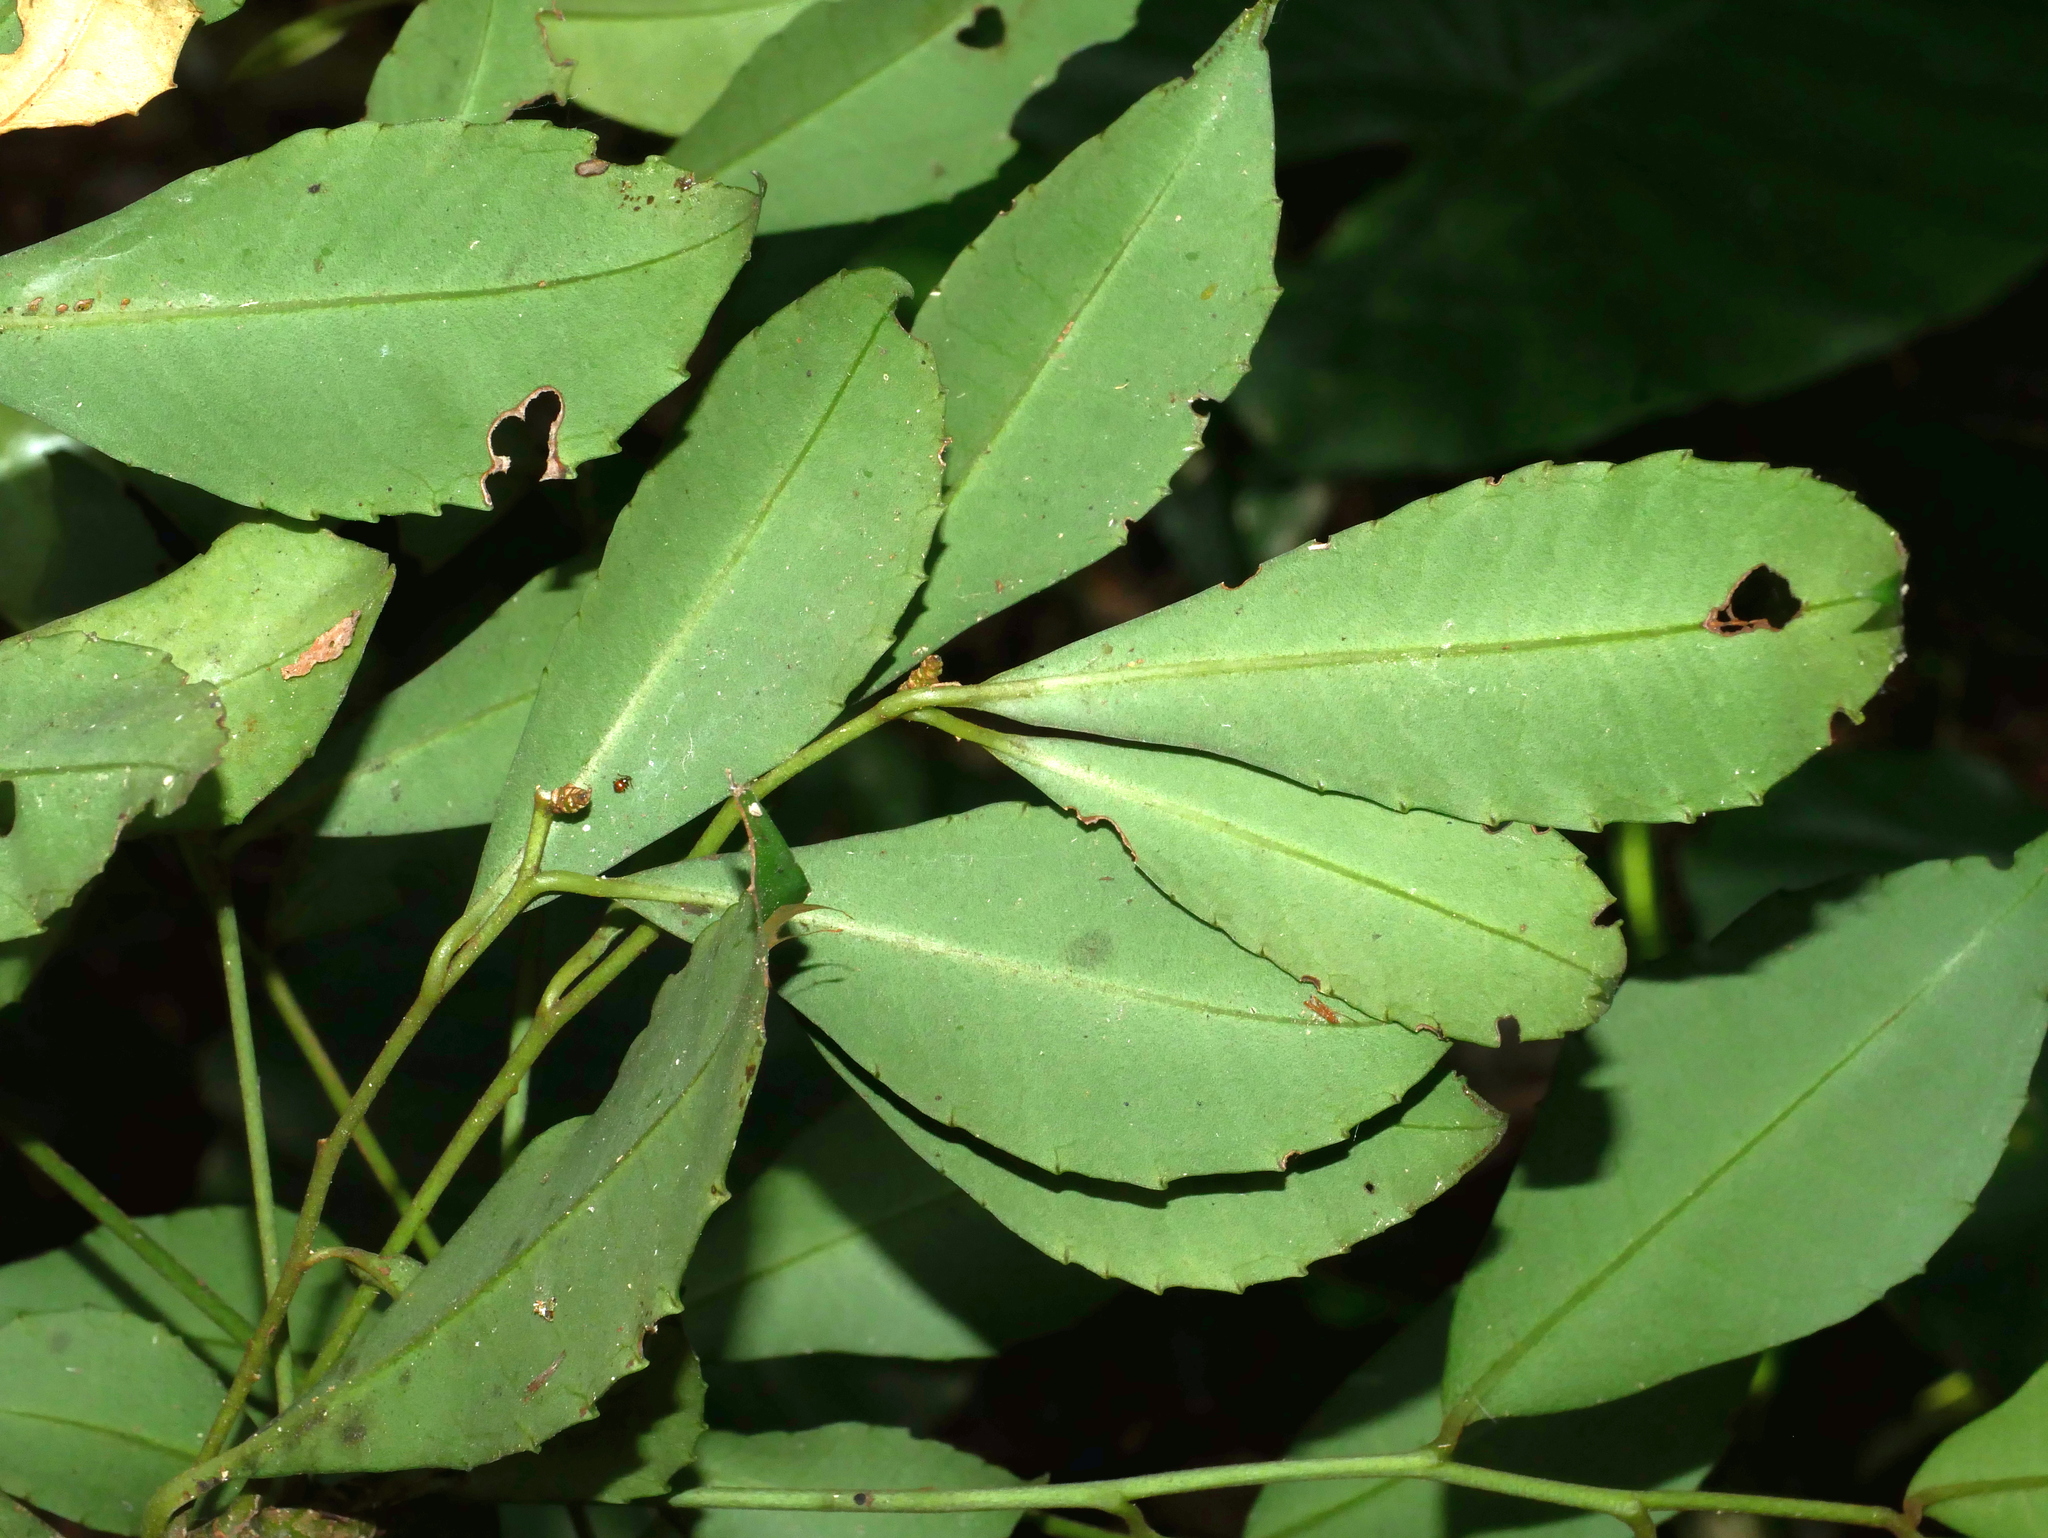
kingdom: Plantae
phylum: Tracheophyta
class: Magnoliopsida
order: Ericales
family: Primulaceae
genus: Ardisia
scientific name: Ardisia cornudentata
